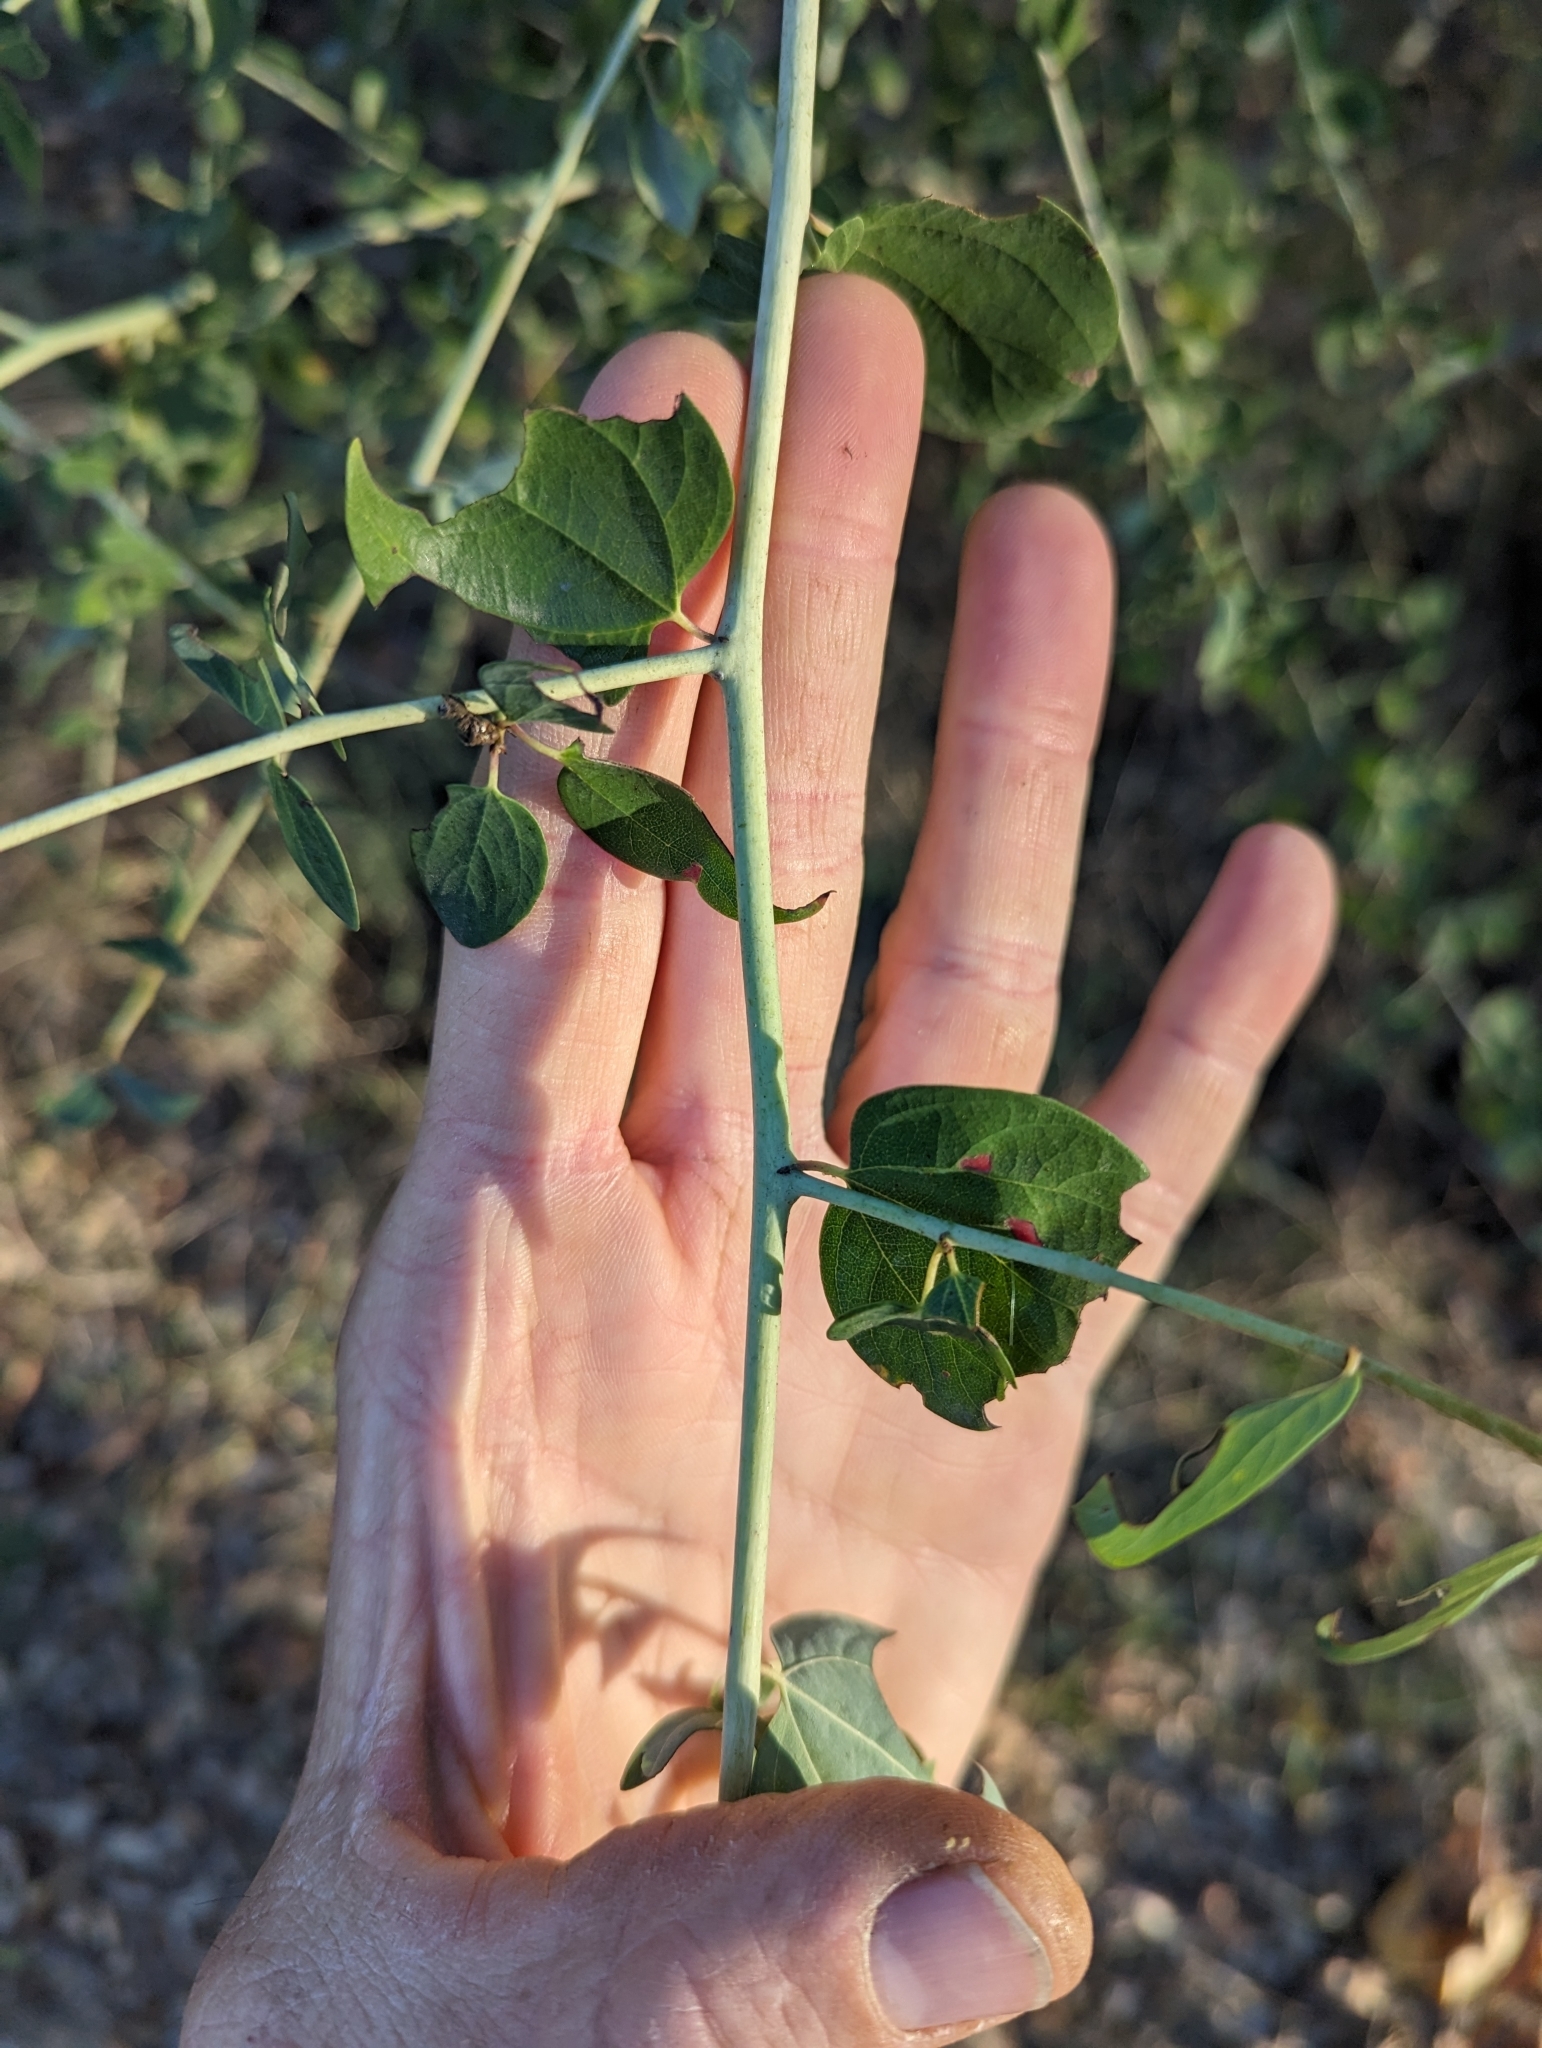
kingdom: Plantae
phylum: Tracheophyta
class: Magnoliopsida
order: Rosales
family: Rhamnaceae
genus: Ceanothus
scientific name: Ceanothus leucodermis
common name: Chaparral whitethorn
